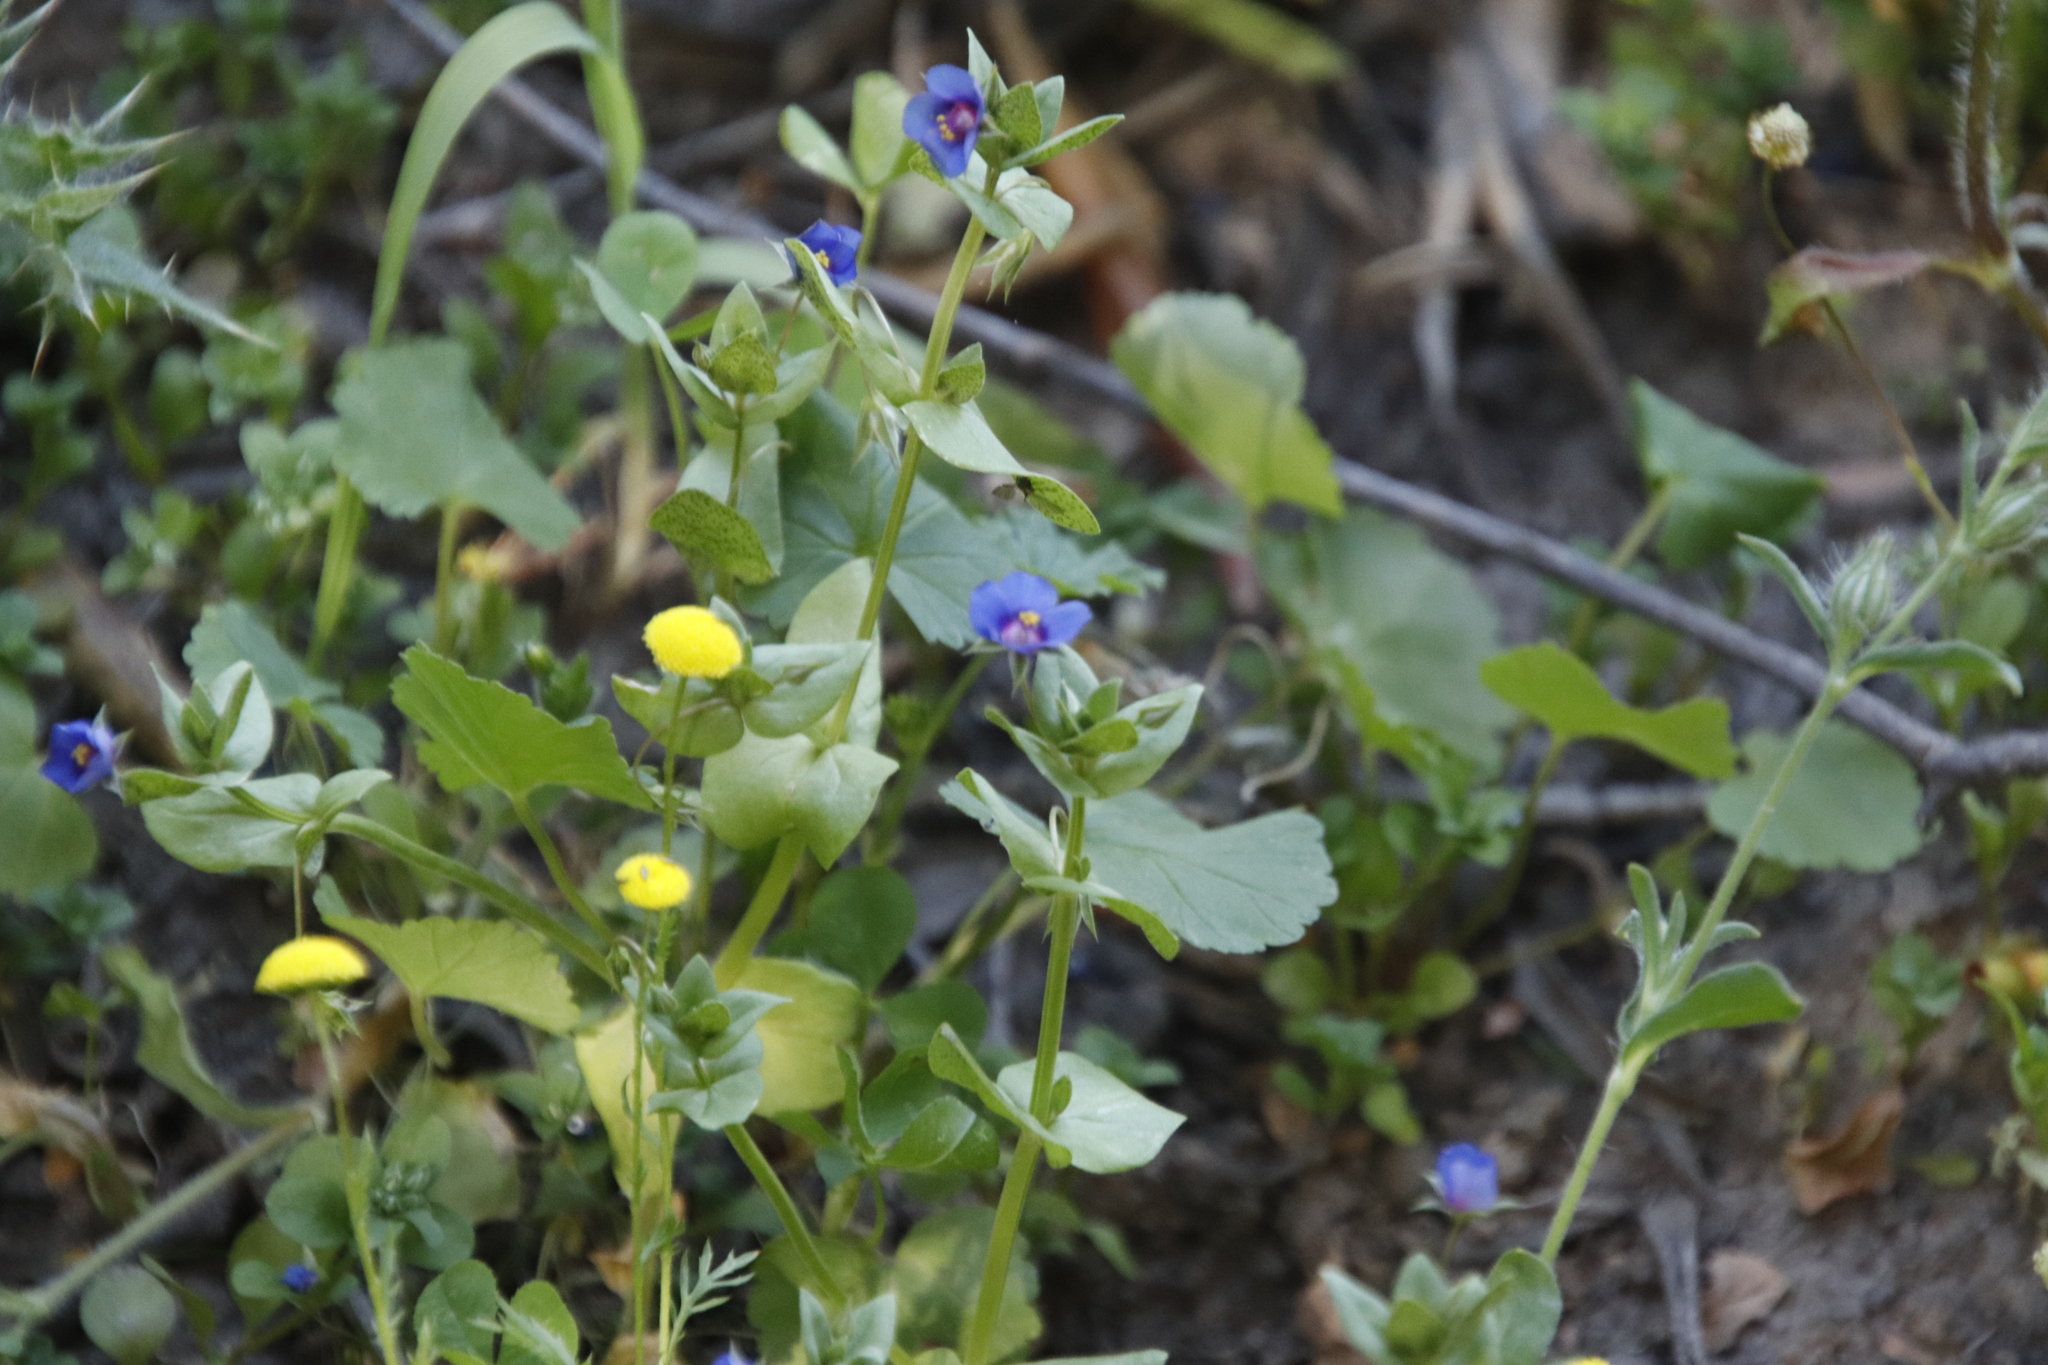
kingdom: Plantae
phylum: Tracheophyta
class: Magnoliopsida
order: Ericales
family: Primulaceae
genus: Lysimachia
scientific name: Lysimachia loeflingii
